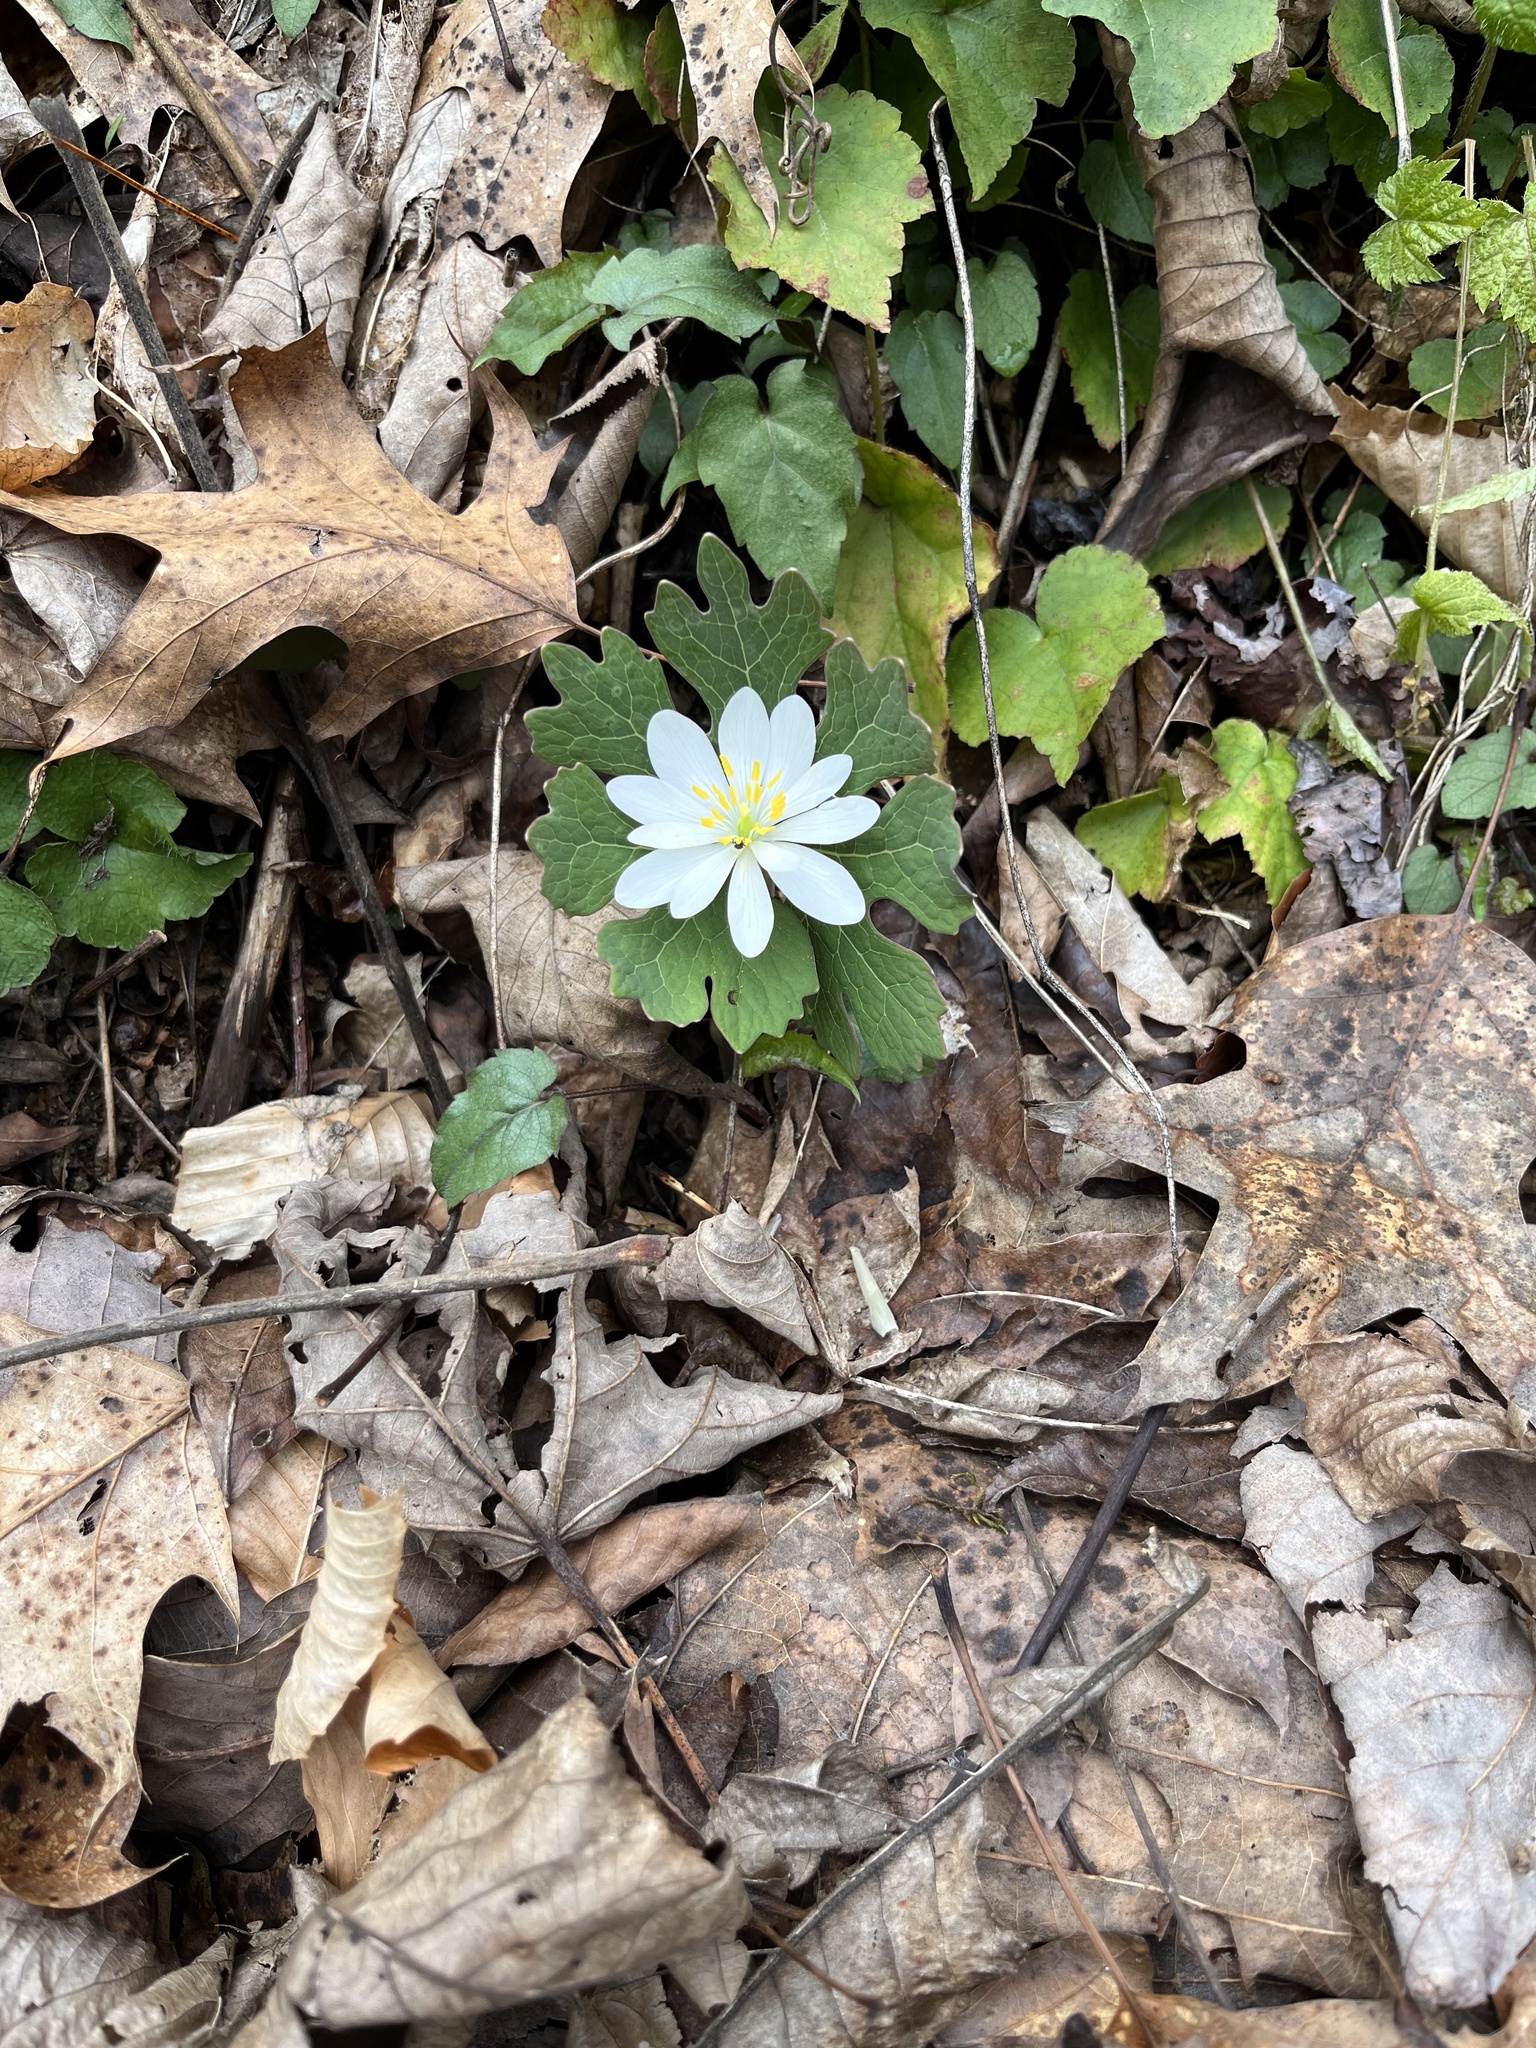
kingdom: Plantae
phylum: Tracheophyta
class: Magnoliopsida
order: Ranunculales
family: Papaveraceae
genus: Sanguinaria
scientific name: Sanguinaria canadensis
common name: Bloodroot
